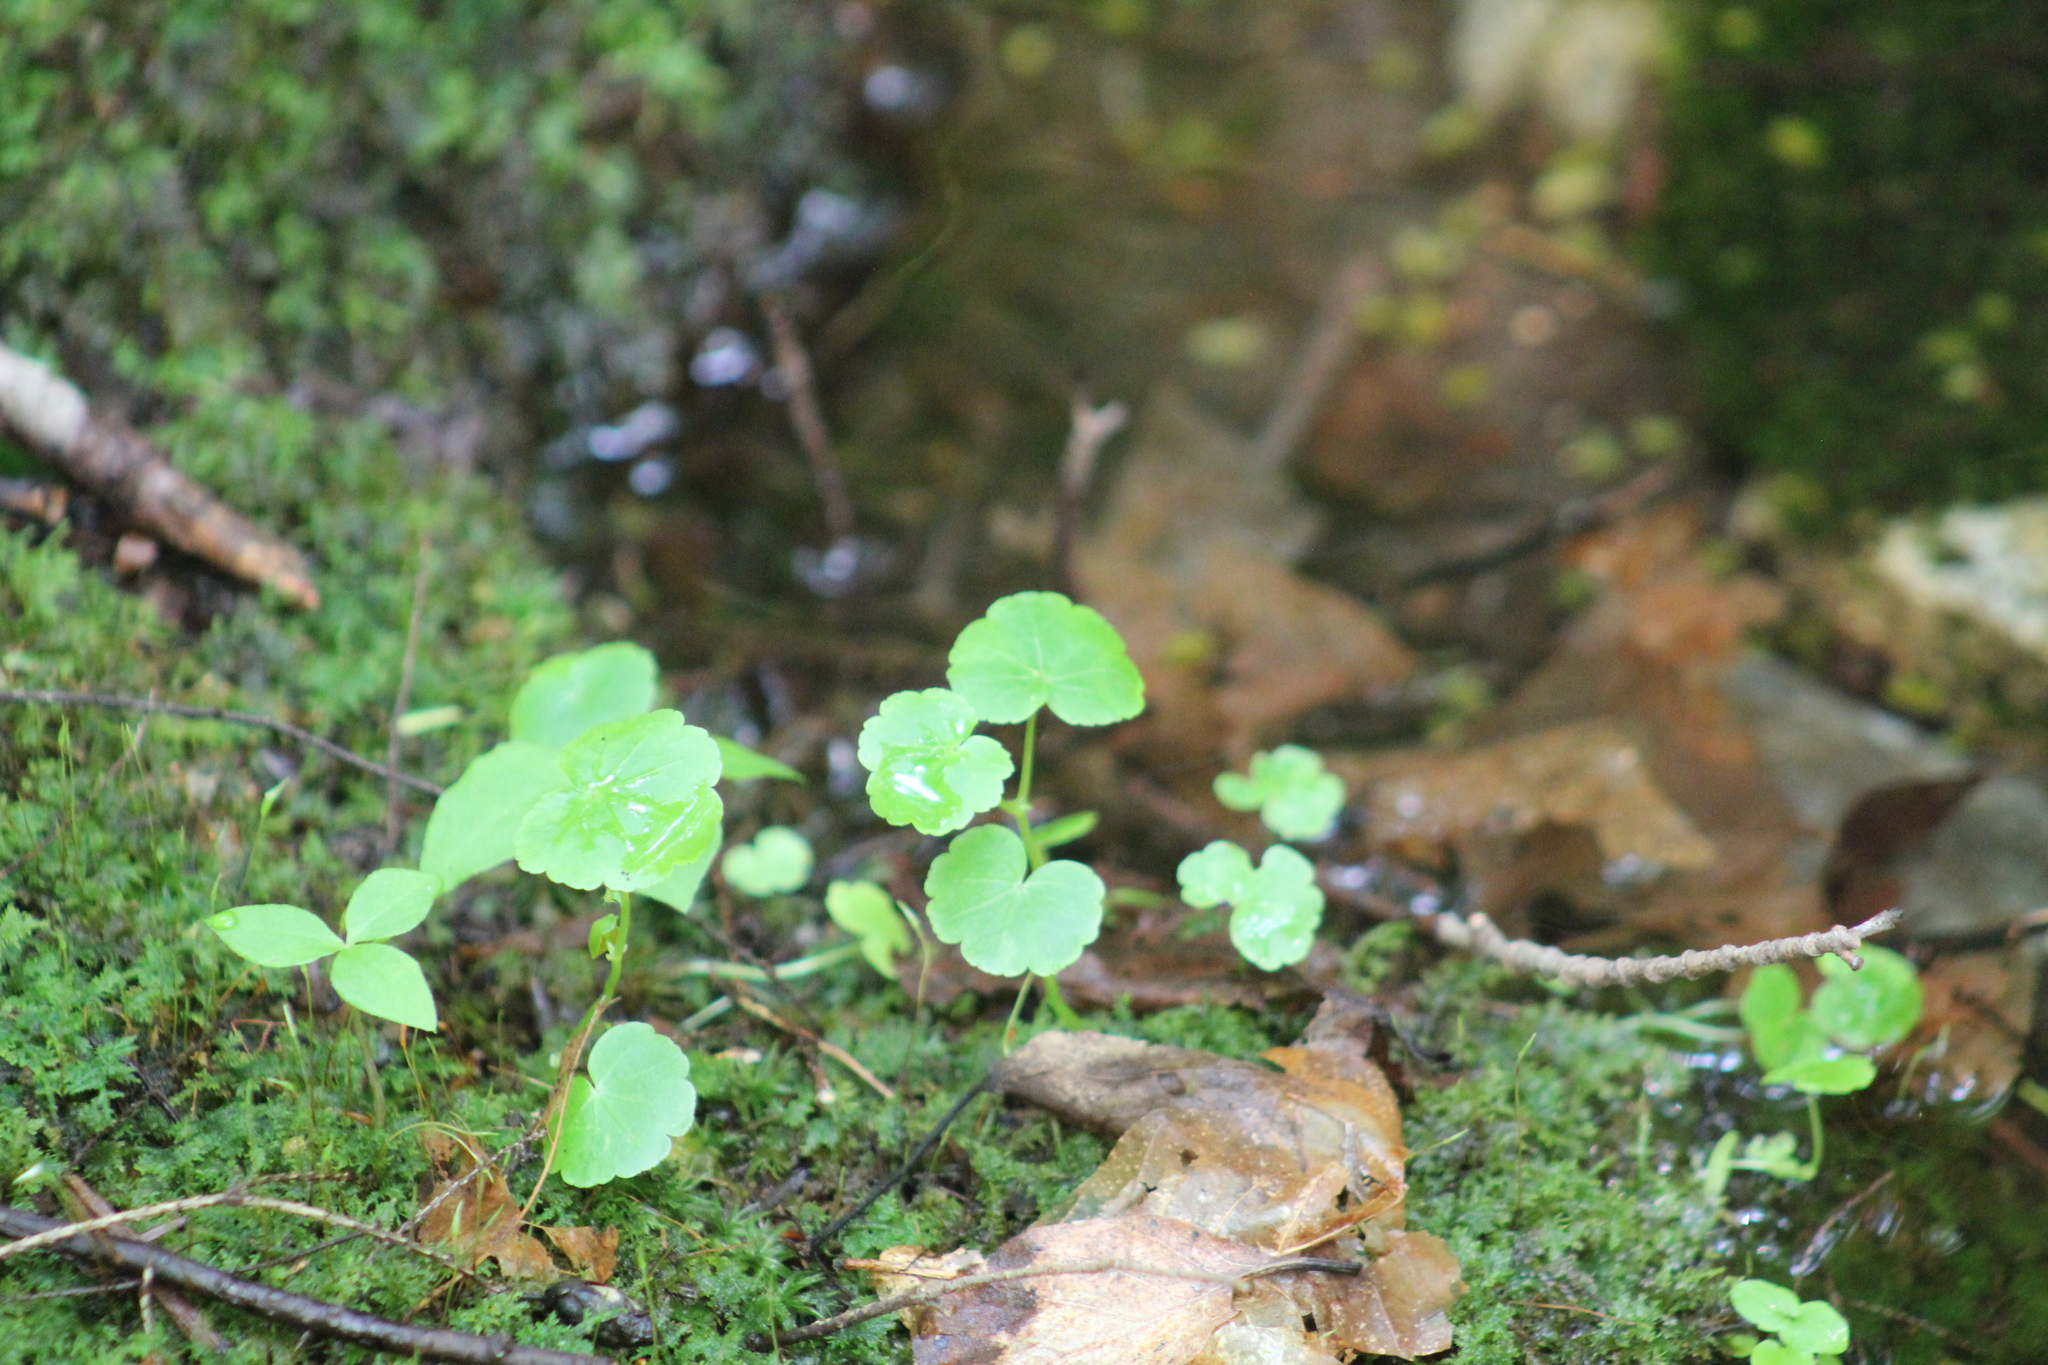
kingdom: Plantae
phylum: Tracheophyta
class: Magnoliopsida
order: Apiales
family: Araliaceae
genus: Hydrocotyle
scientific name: Hydrocotyle americana
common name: American water-pennywort
